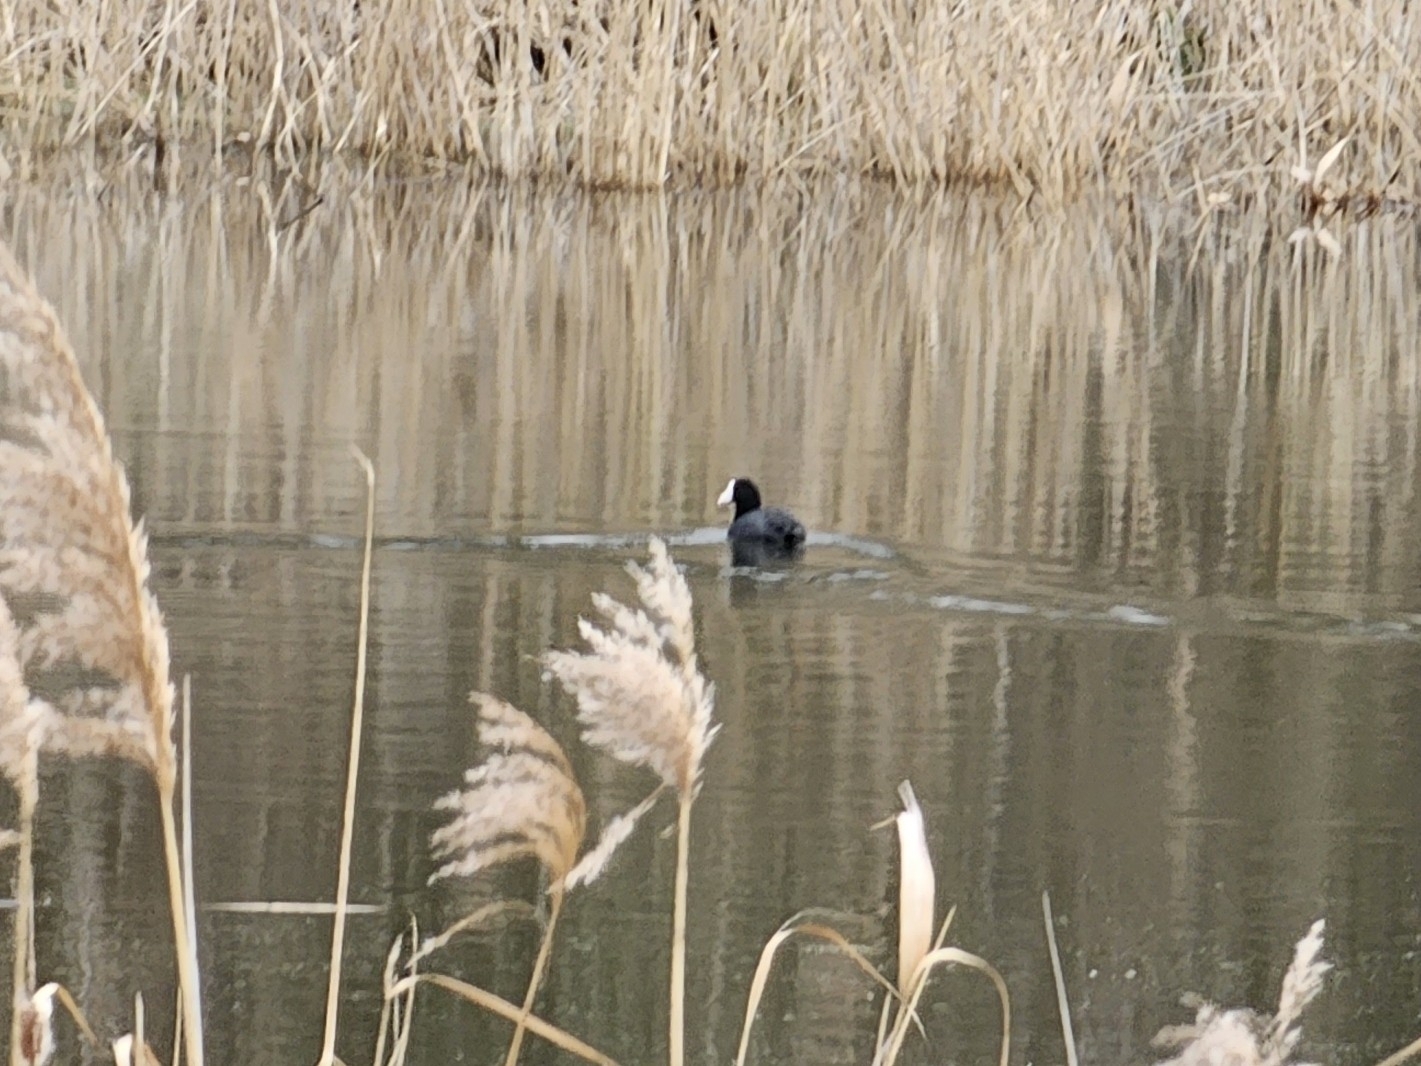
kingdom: Animalia
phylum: Chordata
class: Aves
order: Gruiformes
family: Rallidae
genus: Fulica
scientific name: Fulica atra
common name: Eurasian coot
